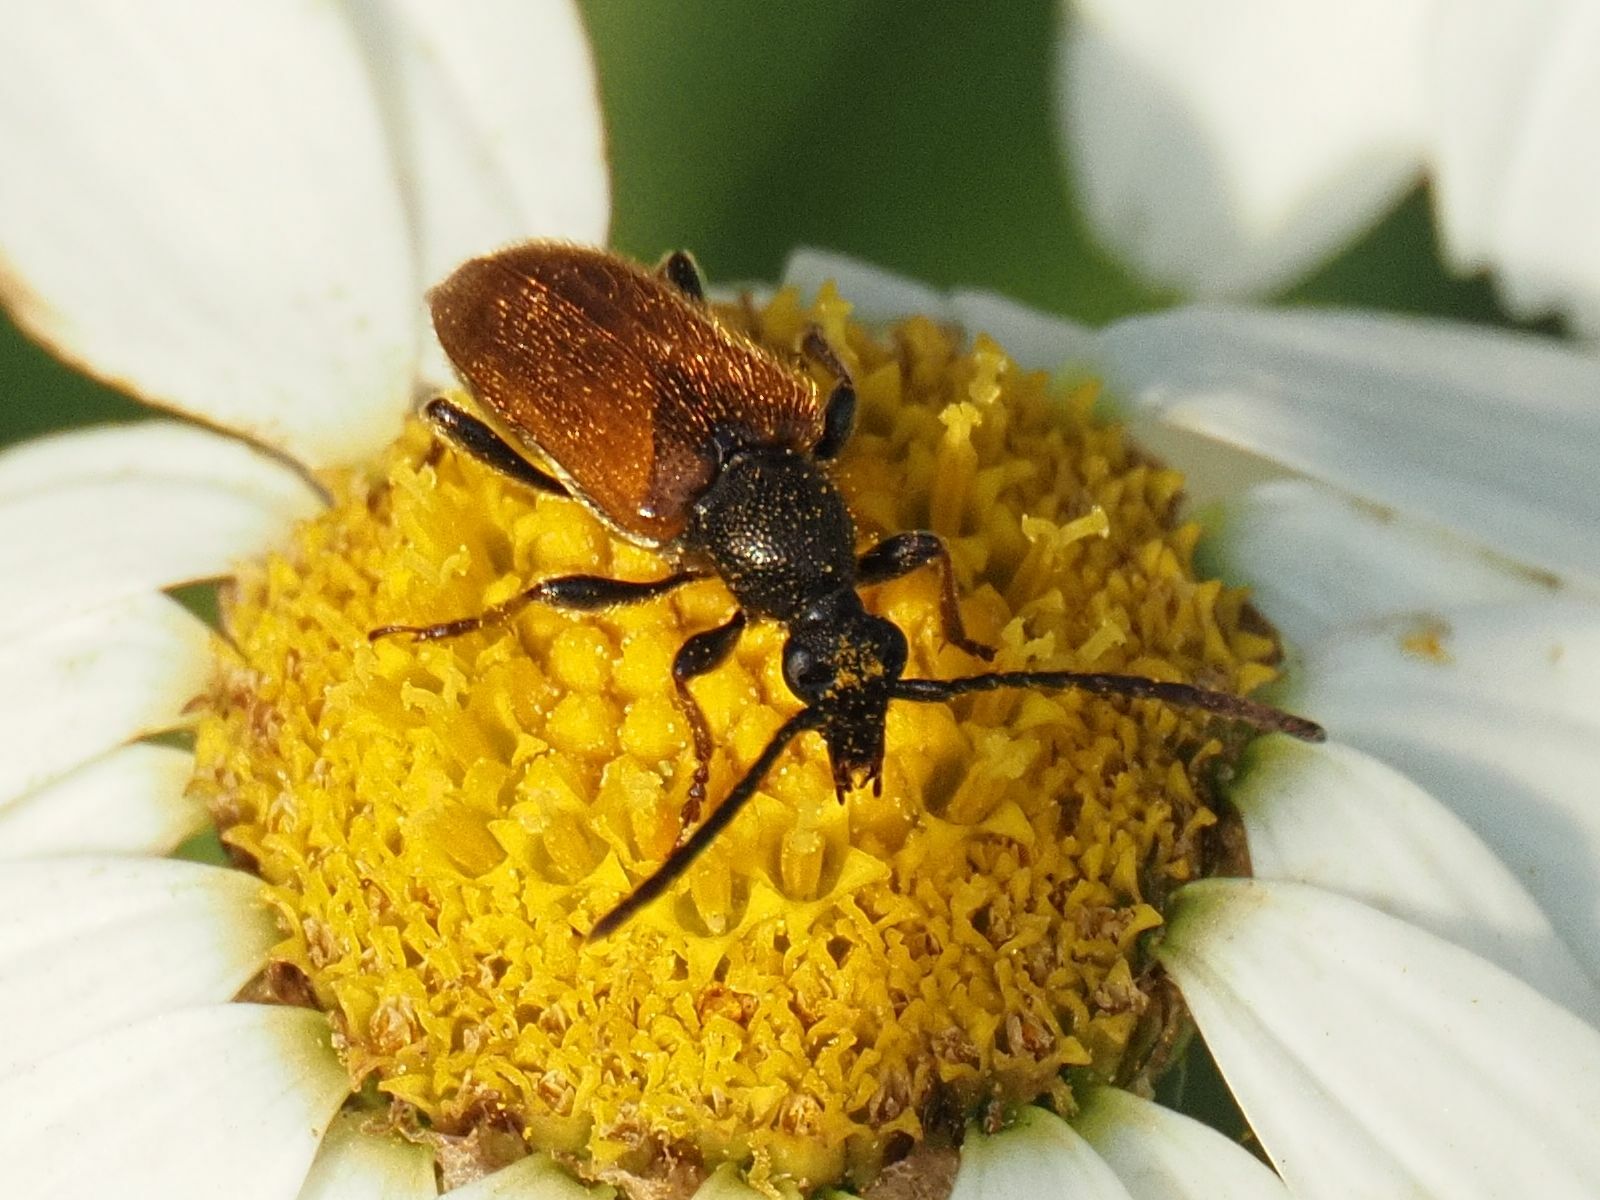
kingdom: Animalia
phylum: Arthropoda
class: Insecta
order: Coleoptera
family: Cerambycidae
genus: Pseudovadonia
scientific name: Pseudovadonia livida
